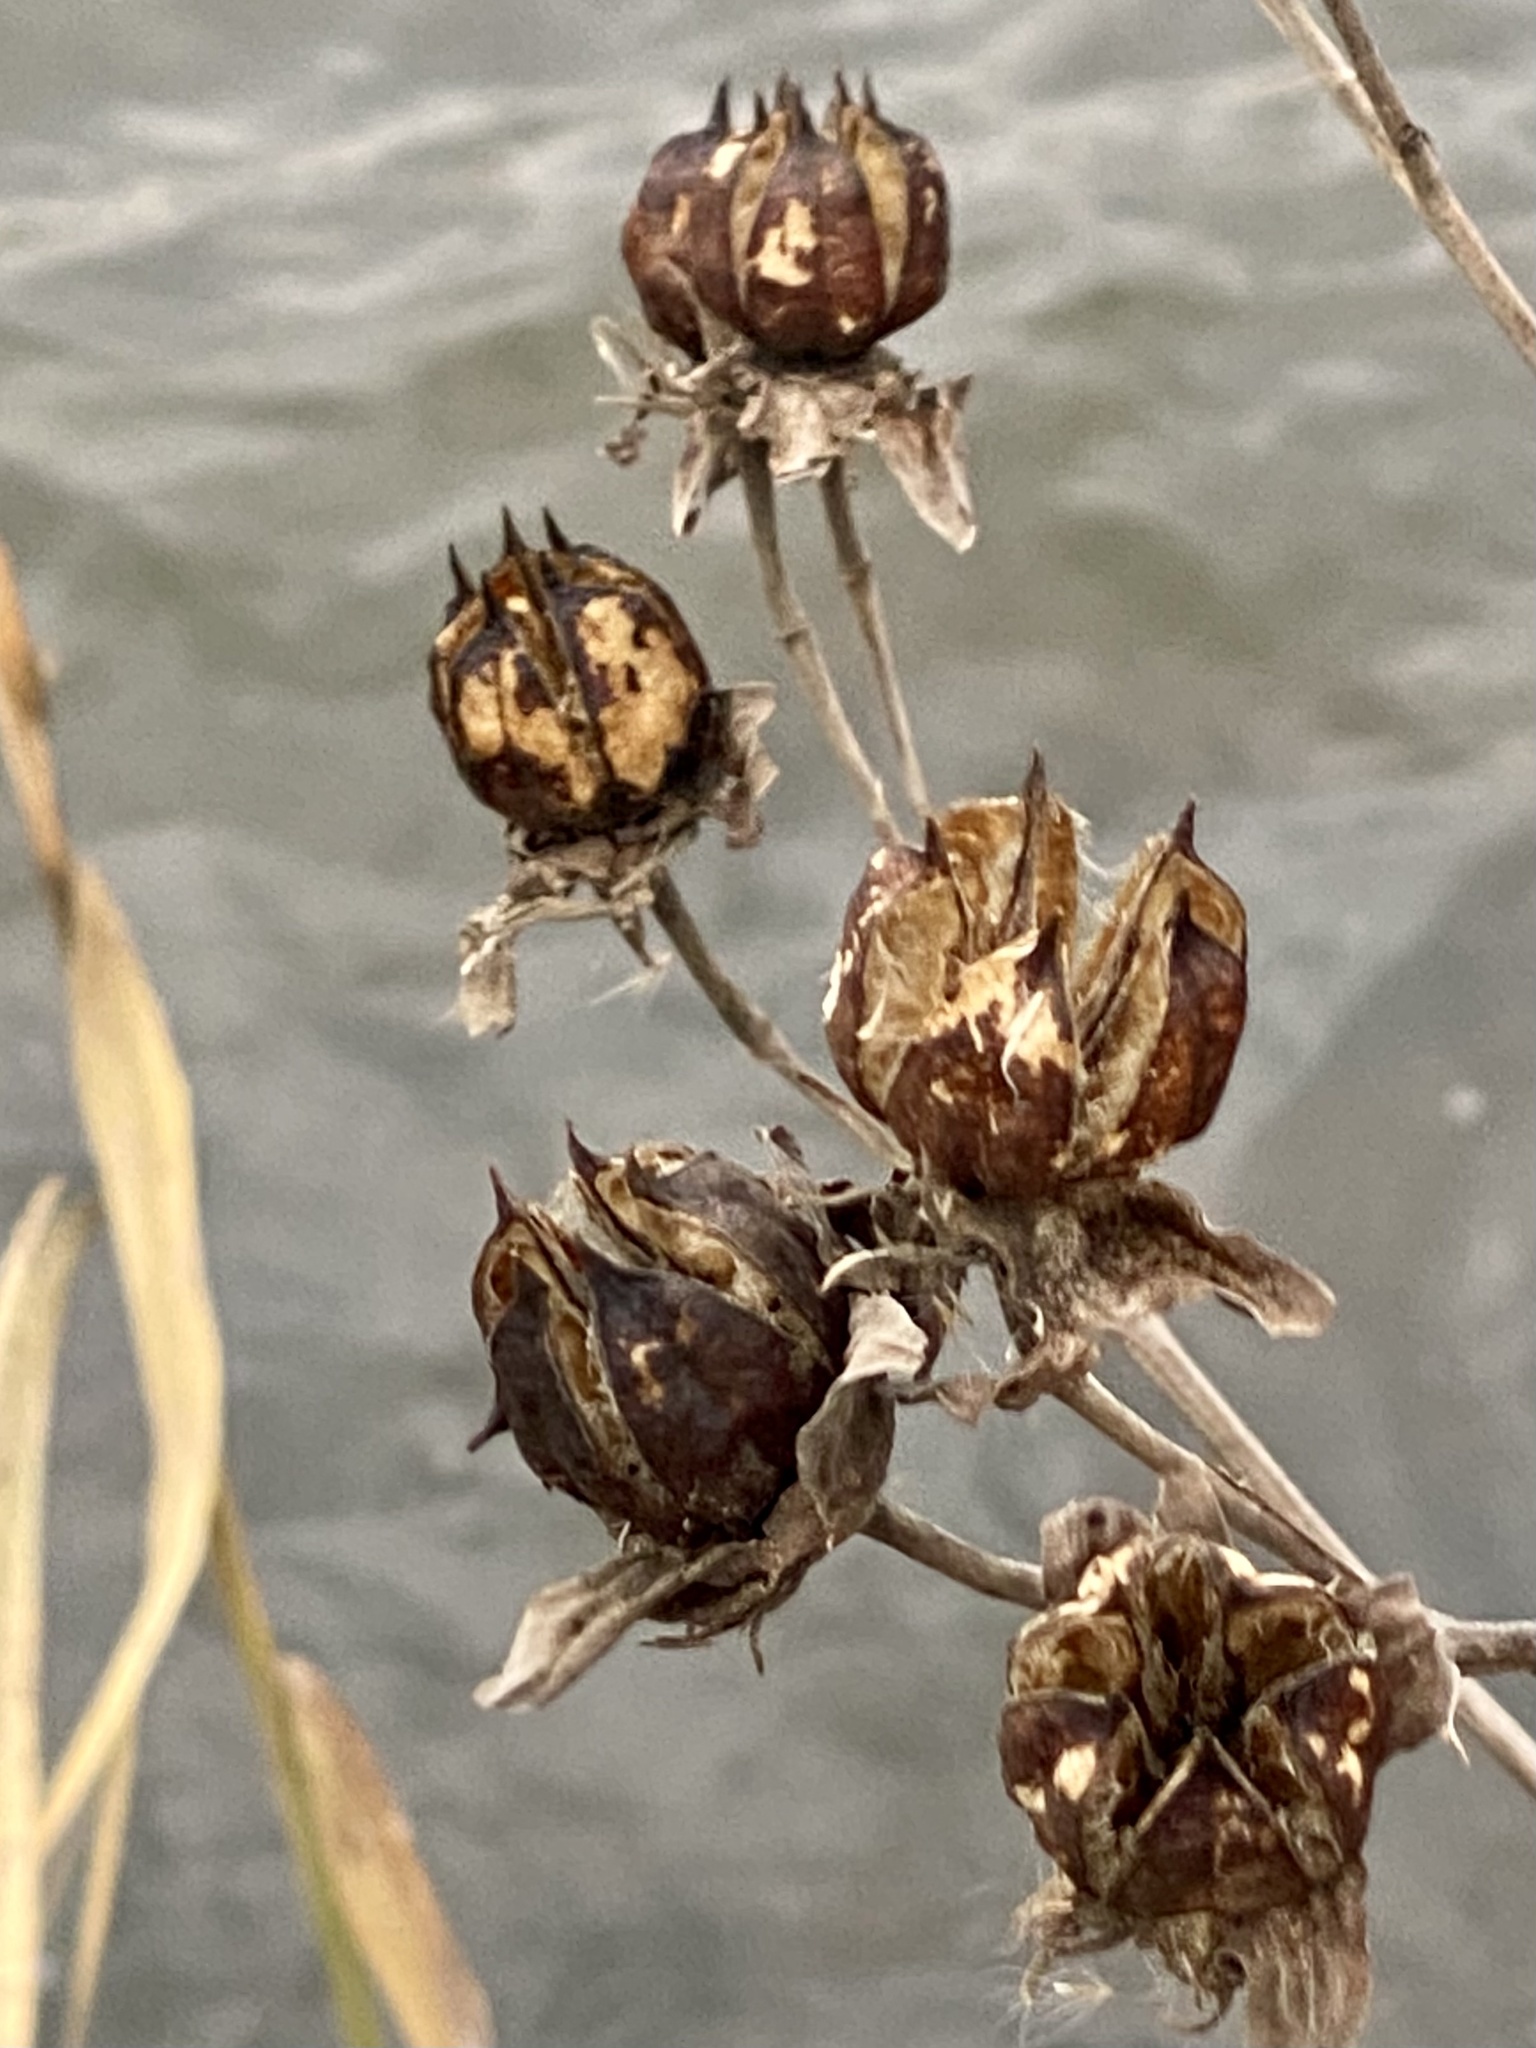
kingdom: Plantae
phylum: Tracheophyta
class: Magnoliopsida
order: Malvales
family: Malvaceae
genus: Hibiscus
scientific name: Hibiscus moscheutos
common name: Common rose-mallow
